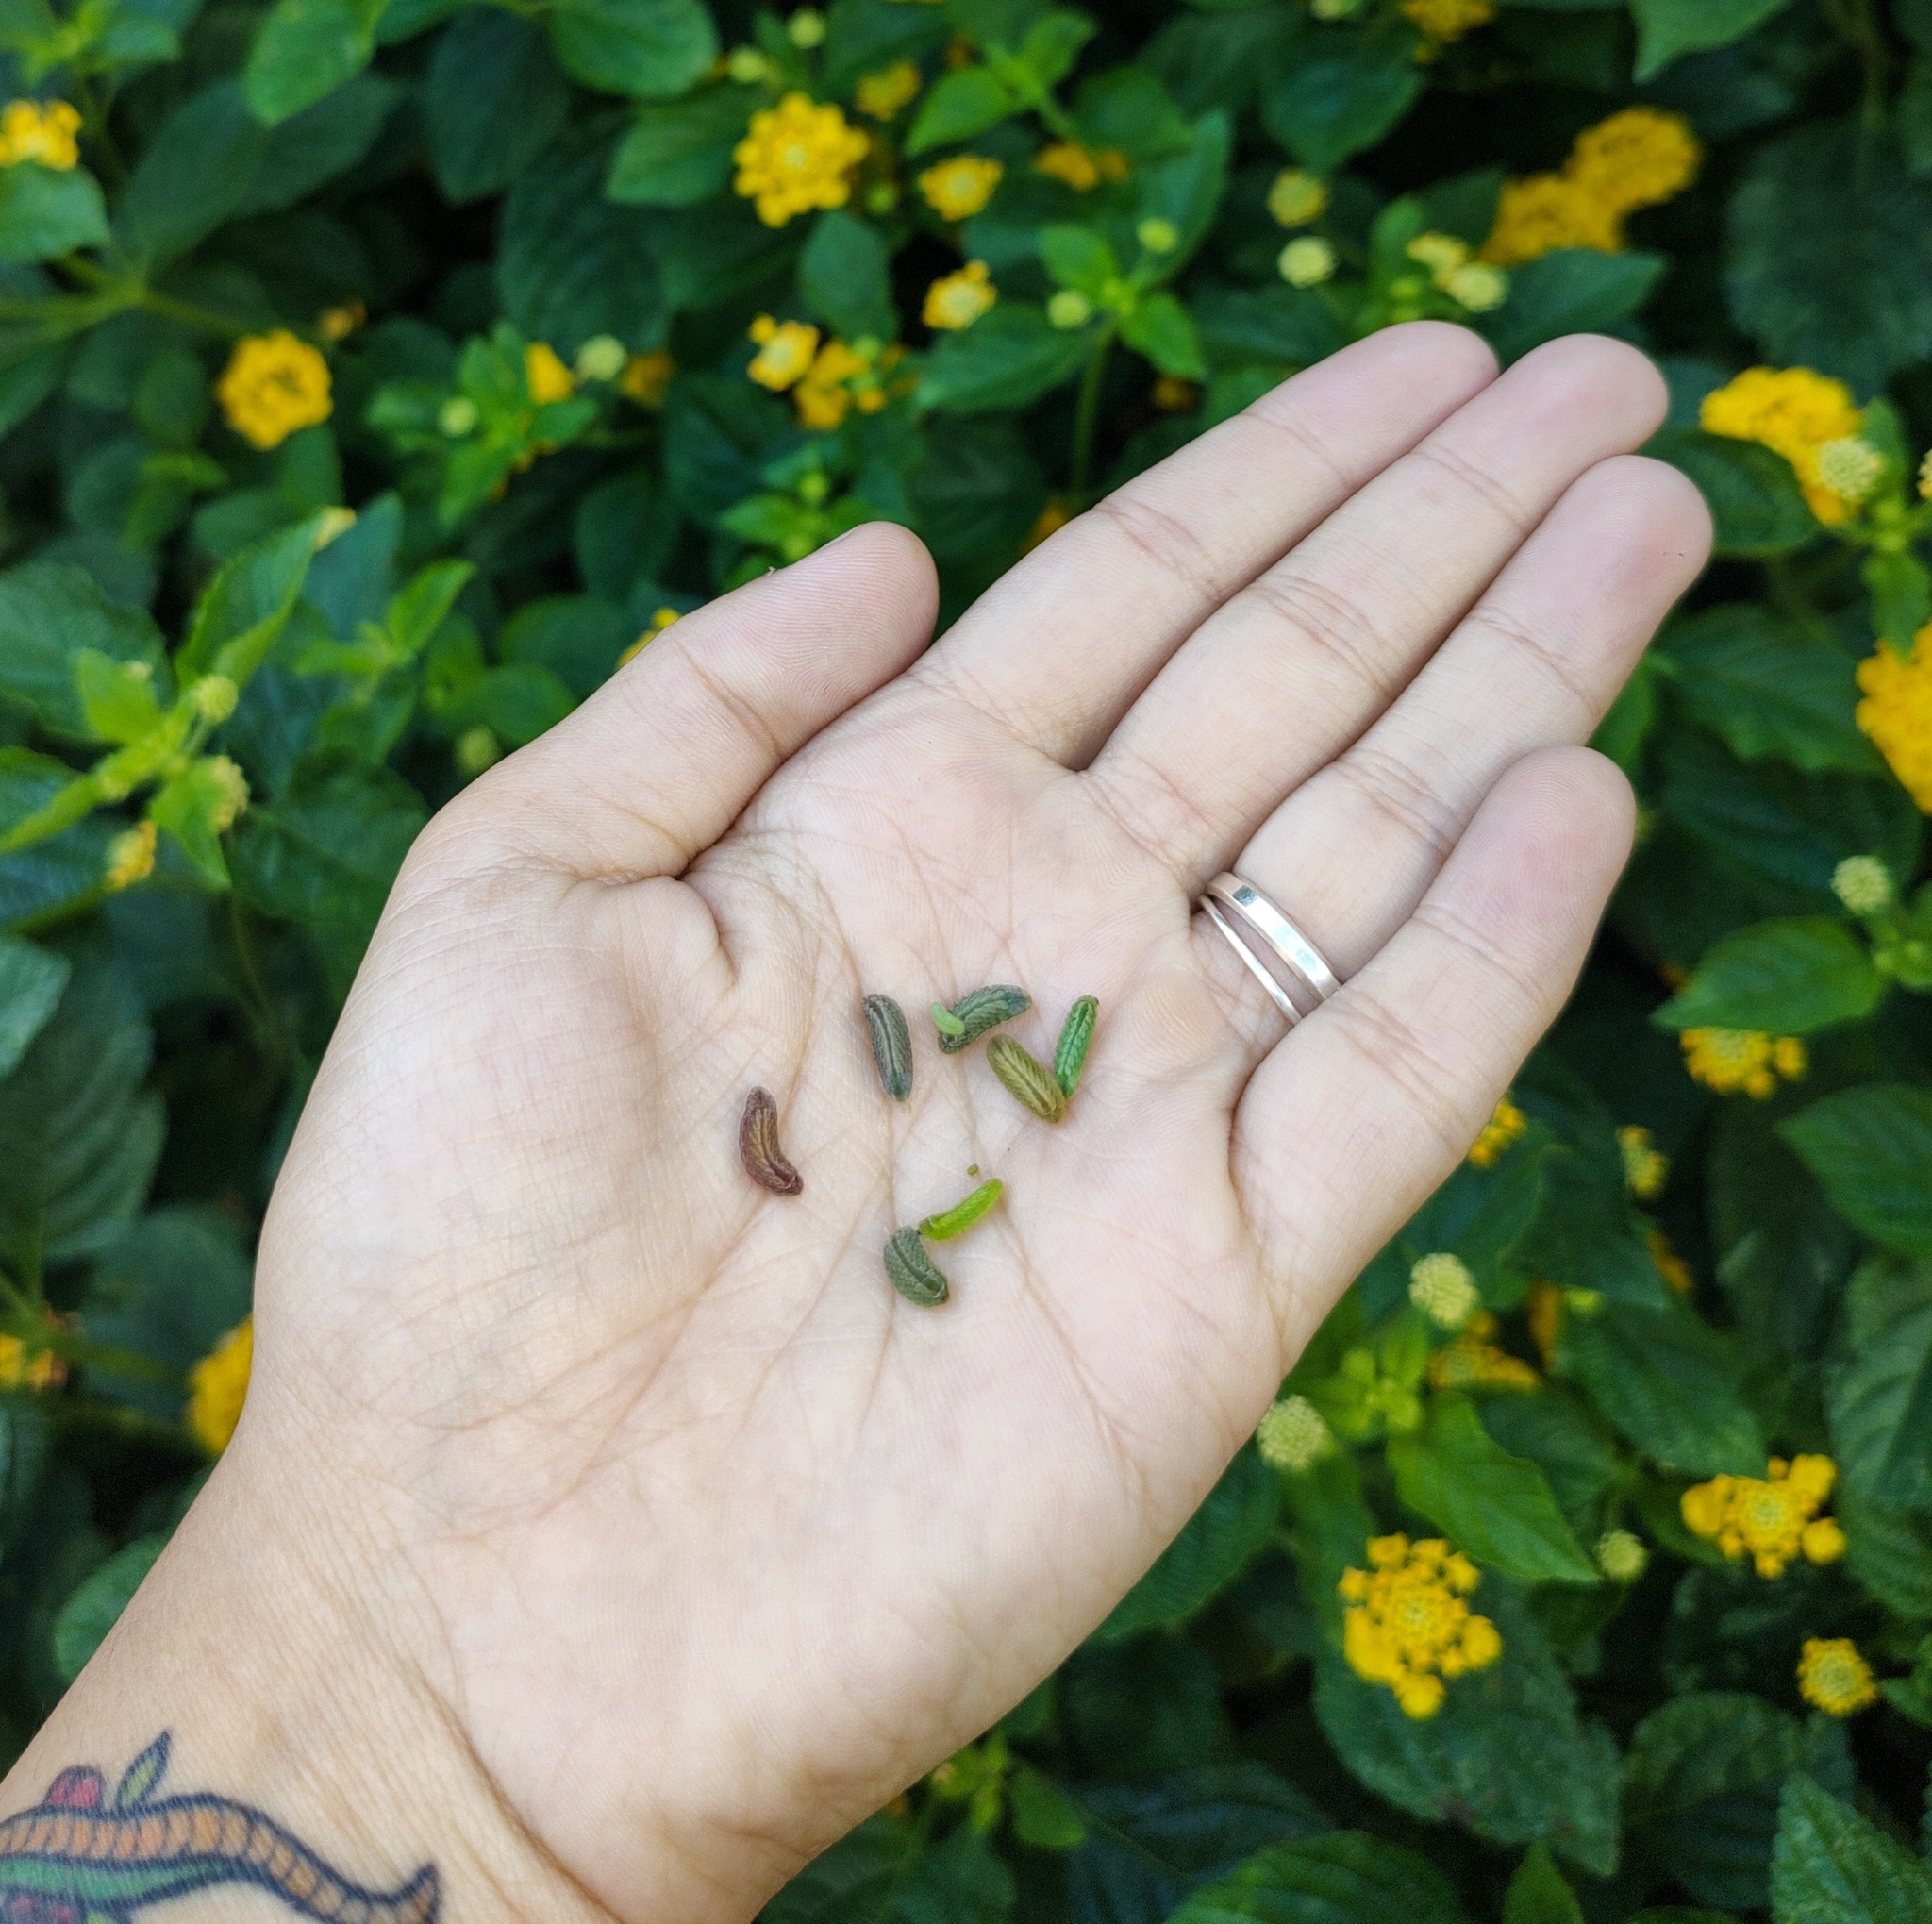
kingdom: Animalia
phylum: Arthropoda
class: Insecta
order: Lepidoptera
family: Lycaenidae
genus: Leptotes
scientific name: Leptotes cassius
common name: Cassius blue
